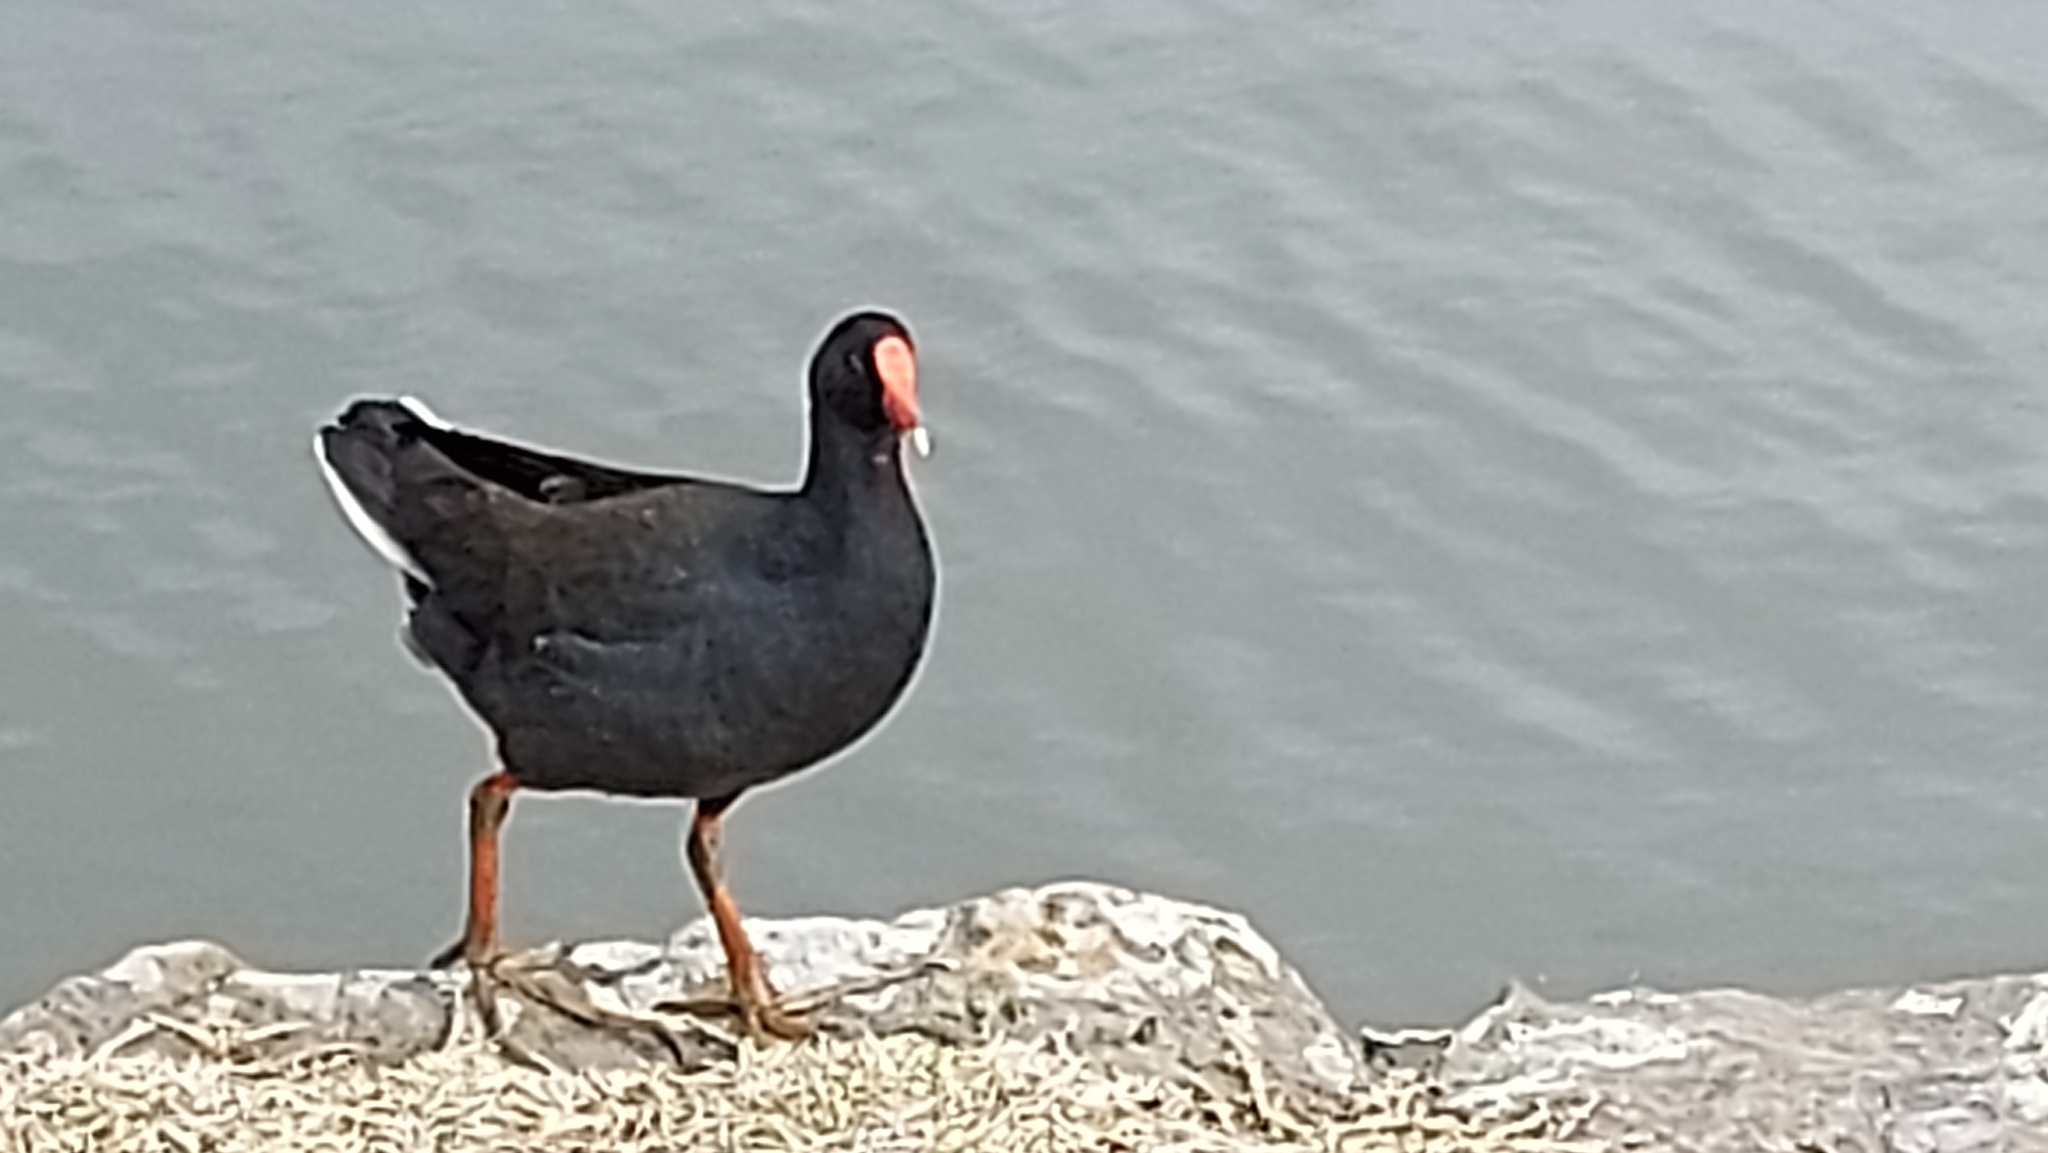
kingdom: Animalia
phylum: Chordata
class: Aves
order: Gruiformes
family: Rallidae
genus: Gallinula
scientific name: Gallinula tenebrosa
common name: Dusky moorhen
